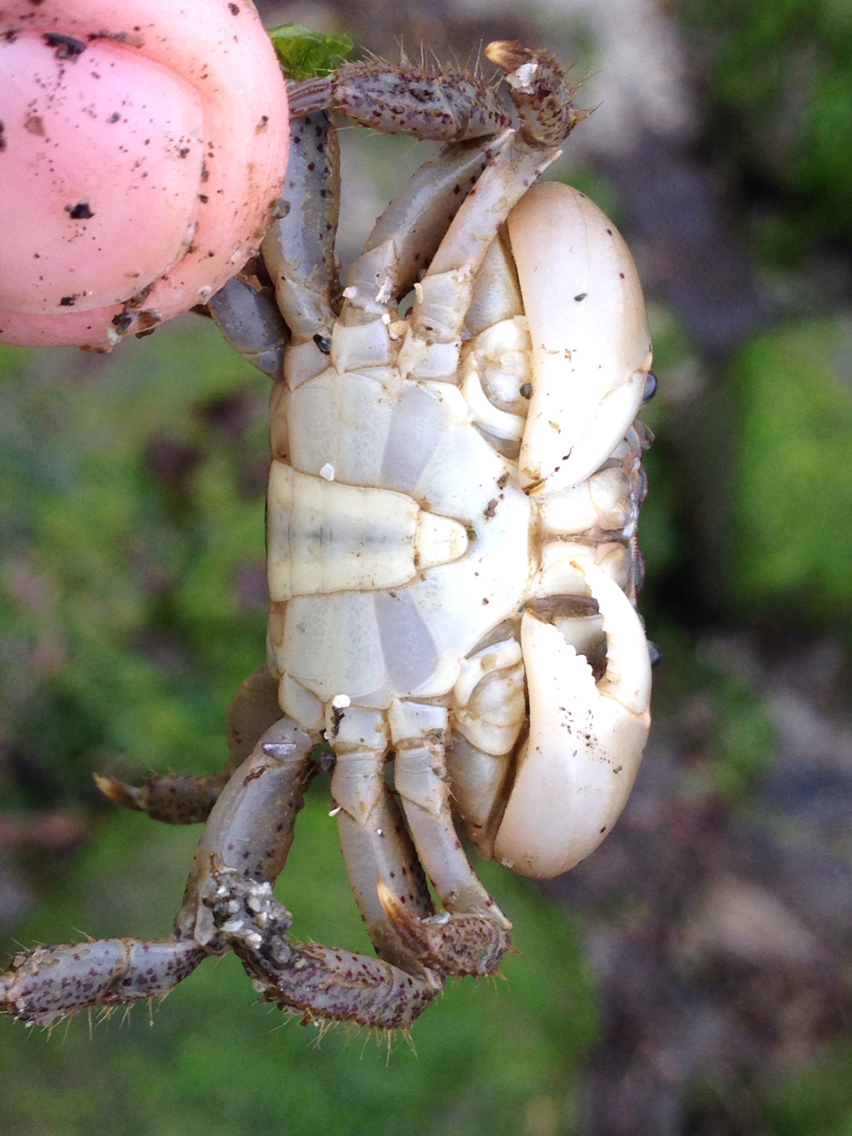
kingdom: Animalia
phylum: Arthropoda
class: Malacostraca
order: Decapoda
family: Varunidae
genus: Hemigrapsus
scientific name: Hemigrapsus oregonensis
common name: Yellow shore crab
